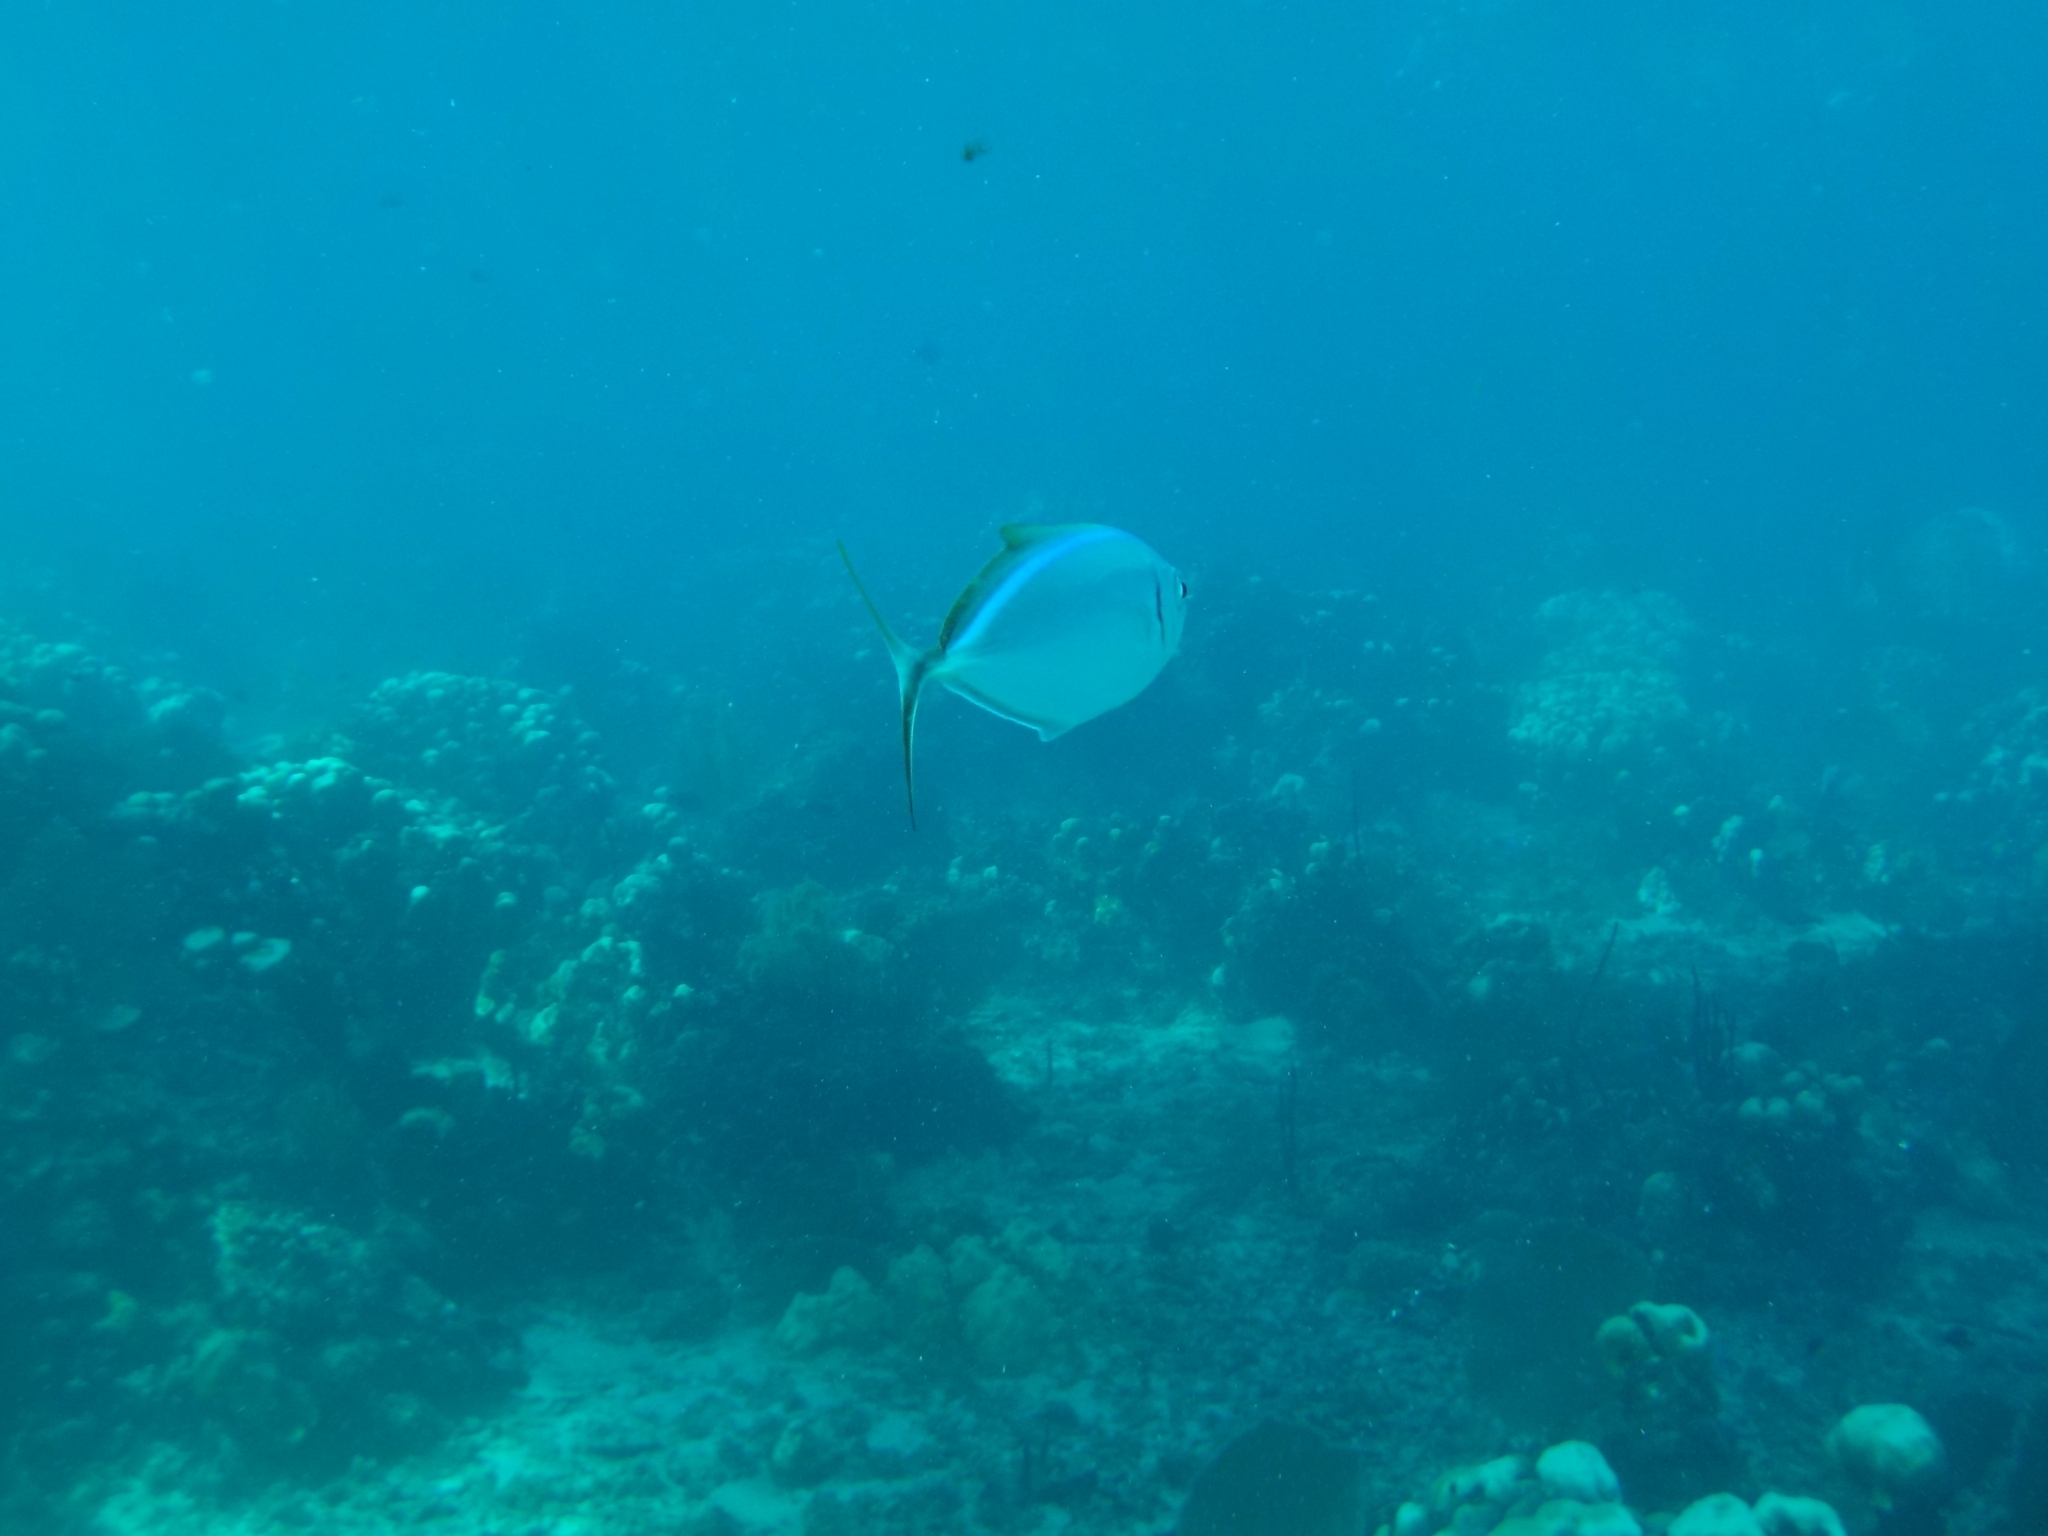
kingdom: Animalia
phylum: Chordata
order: Perciformes
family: Carangidae
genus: Caranx
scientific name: Caranx ruber
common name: Bar jack
